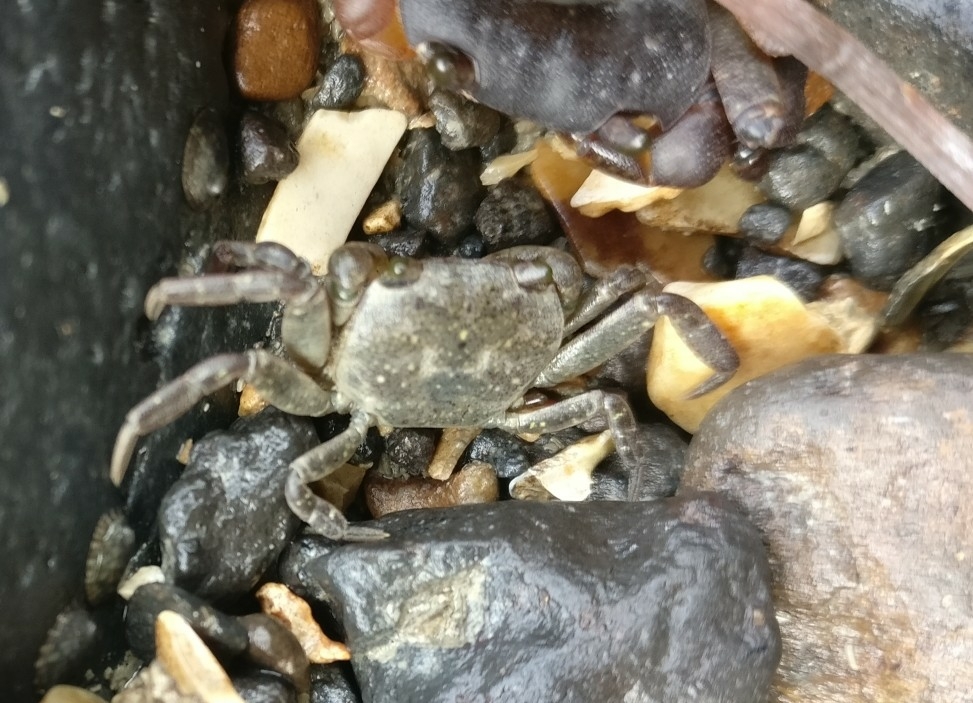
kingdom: Animalia
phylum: Arthropoda
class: Malacostraca
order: Decapoda
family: Varunidae
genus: Cyclograpsus
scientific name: Cyclograpsus lavauxi
